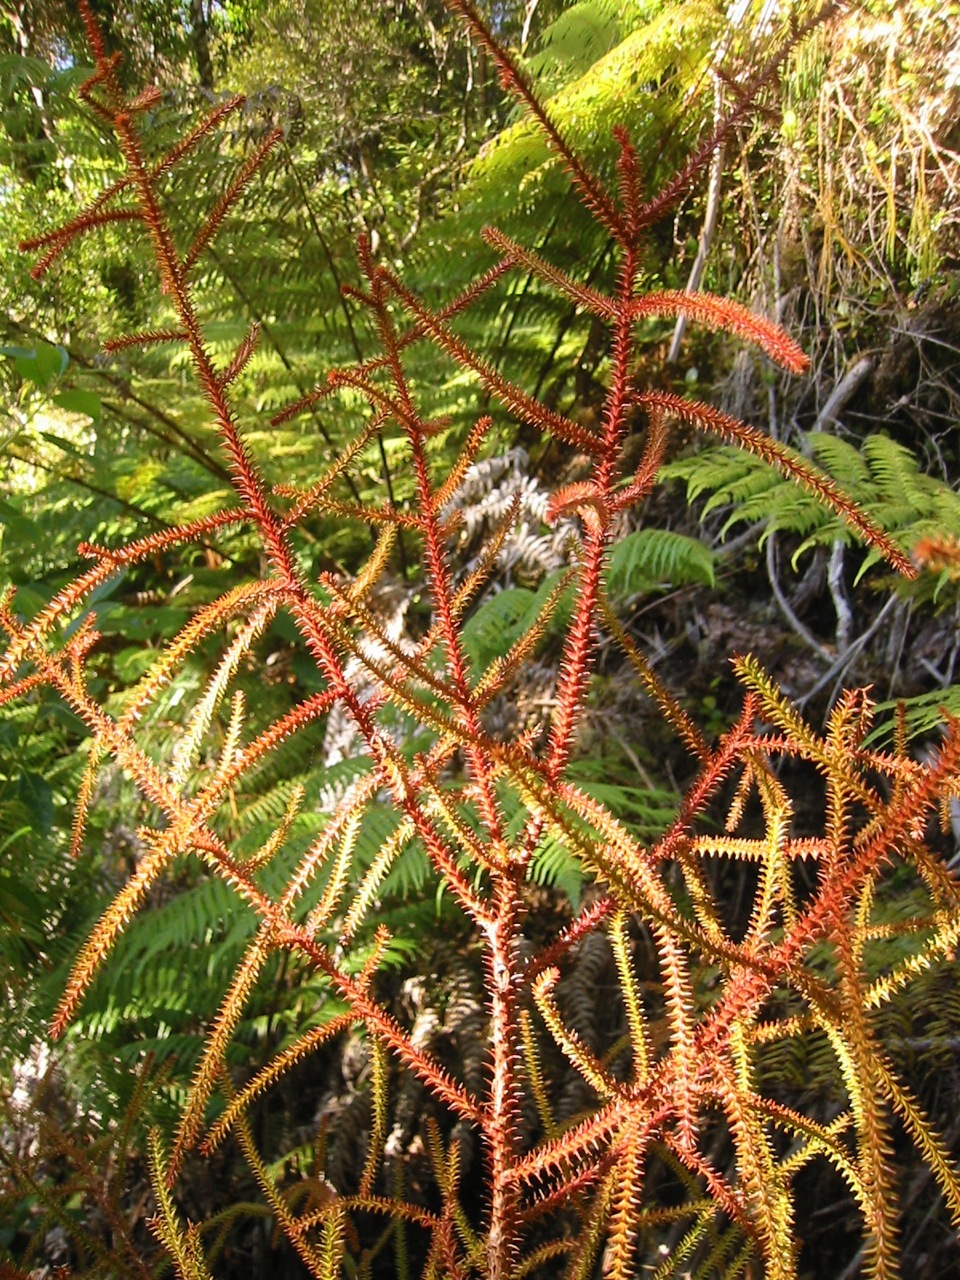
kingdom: Plantae
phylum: Tracheophyta
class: Pinopsida
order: Pinales
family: Podocarpaceae
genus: Dacrydium
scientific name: Dacrydium cupressinum
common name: Red pine
